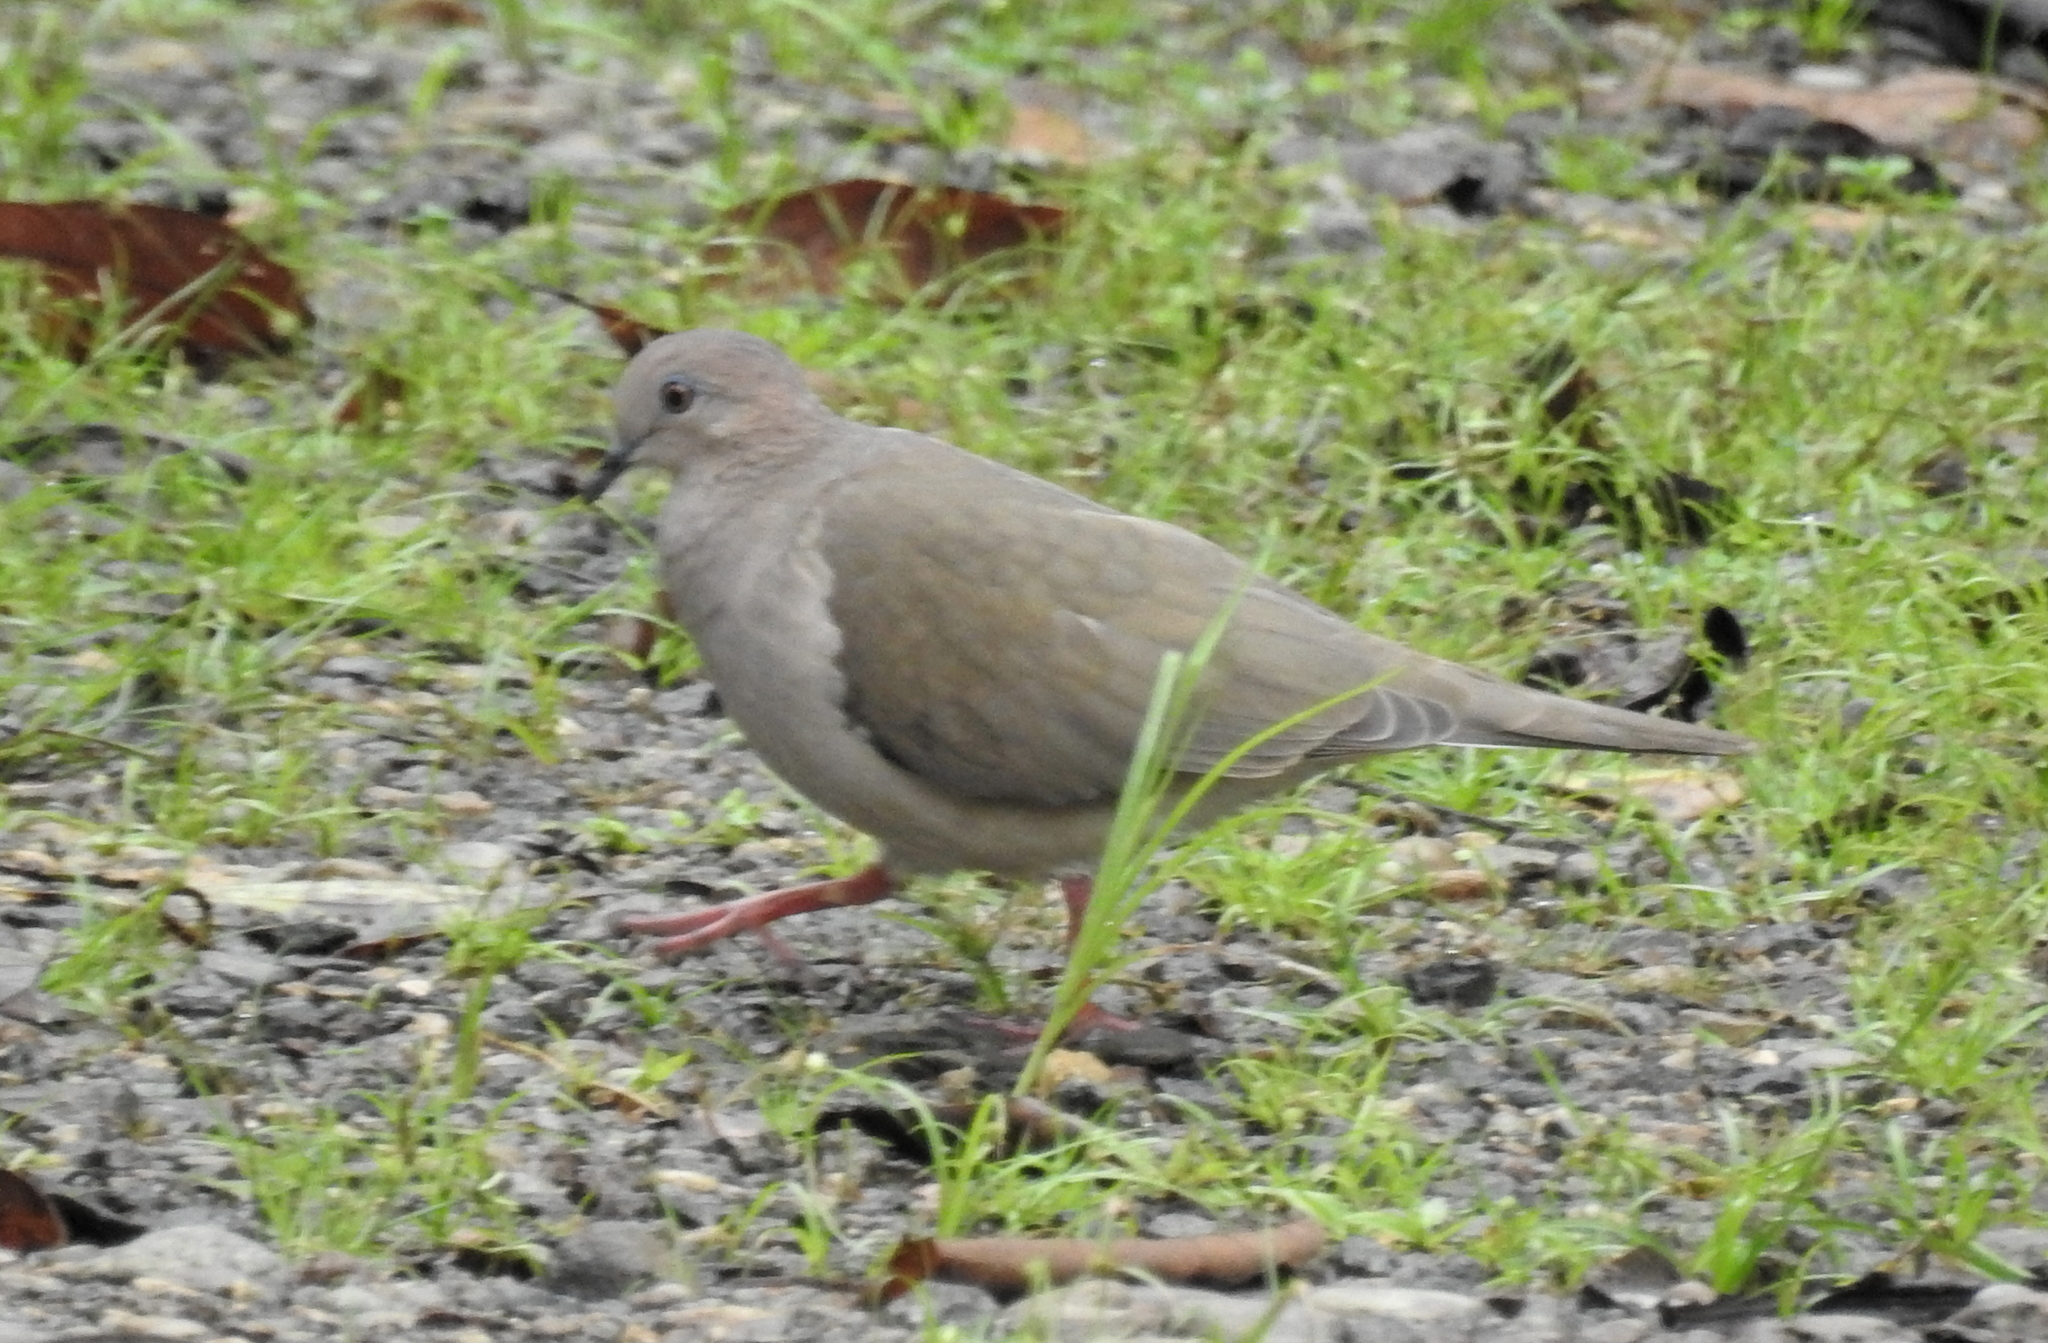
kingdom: Animalia
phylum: Chordata
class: Aves
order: Columbiformes
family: Columbidae
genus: Leptotila
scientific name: Leptotila verreauxi
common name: White-tipped dove
